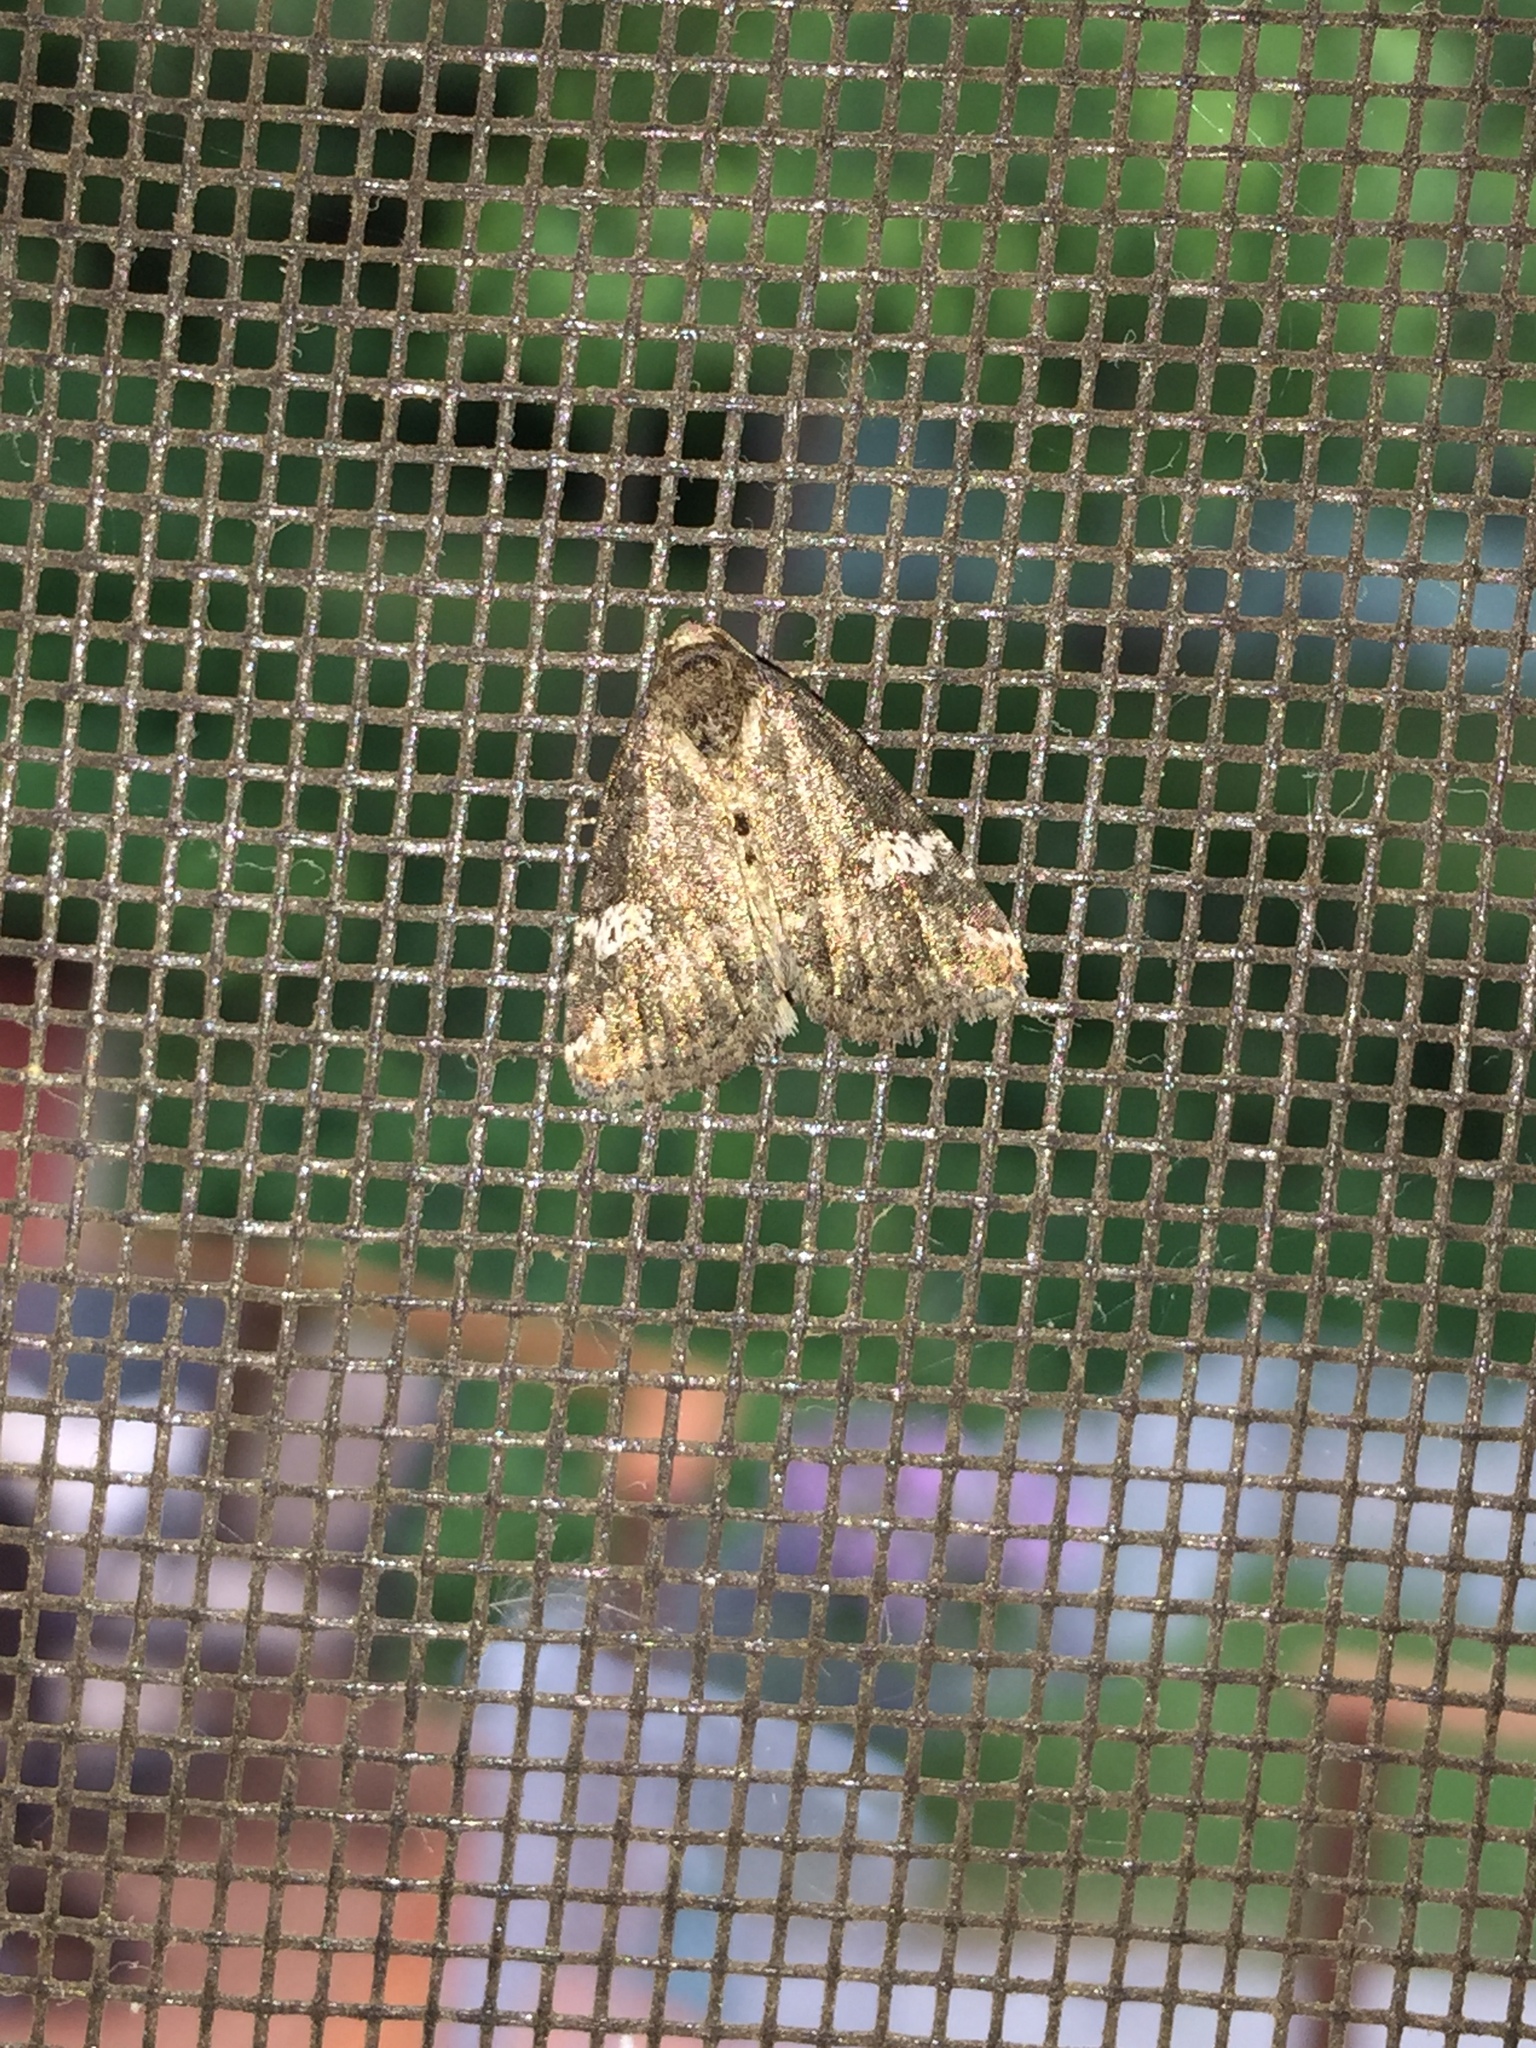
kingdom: Animalia
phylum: Arthropoda
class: Insecta
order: Lepidoptera
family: Noctuidae
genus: Anterastria
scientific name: Anterastria teratophora
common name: Gray marvel moth
